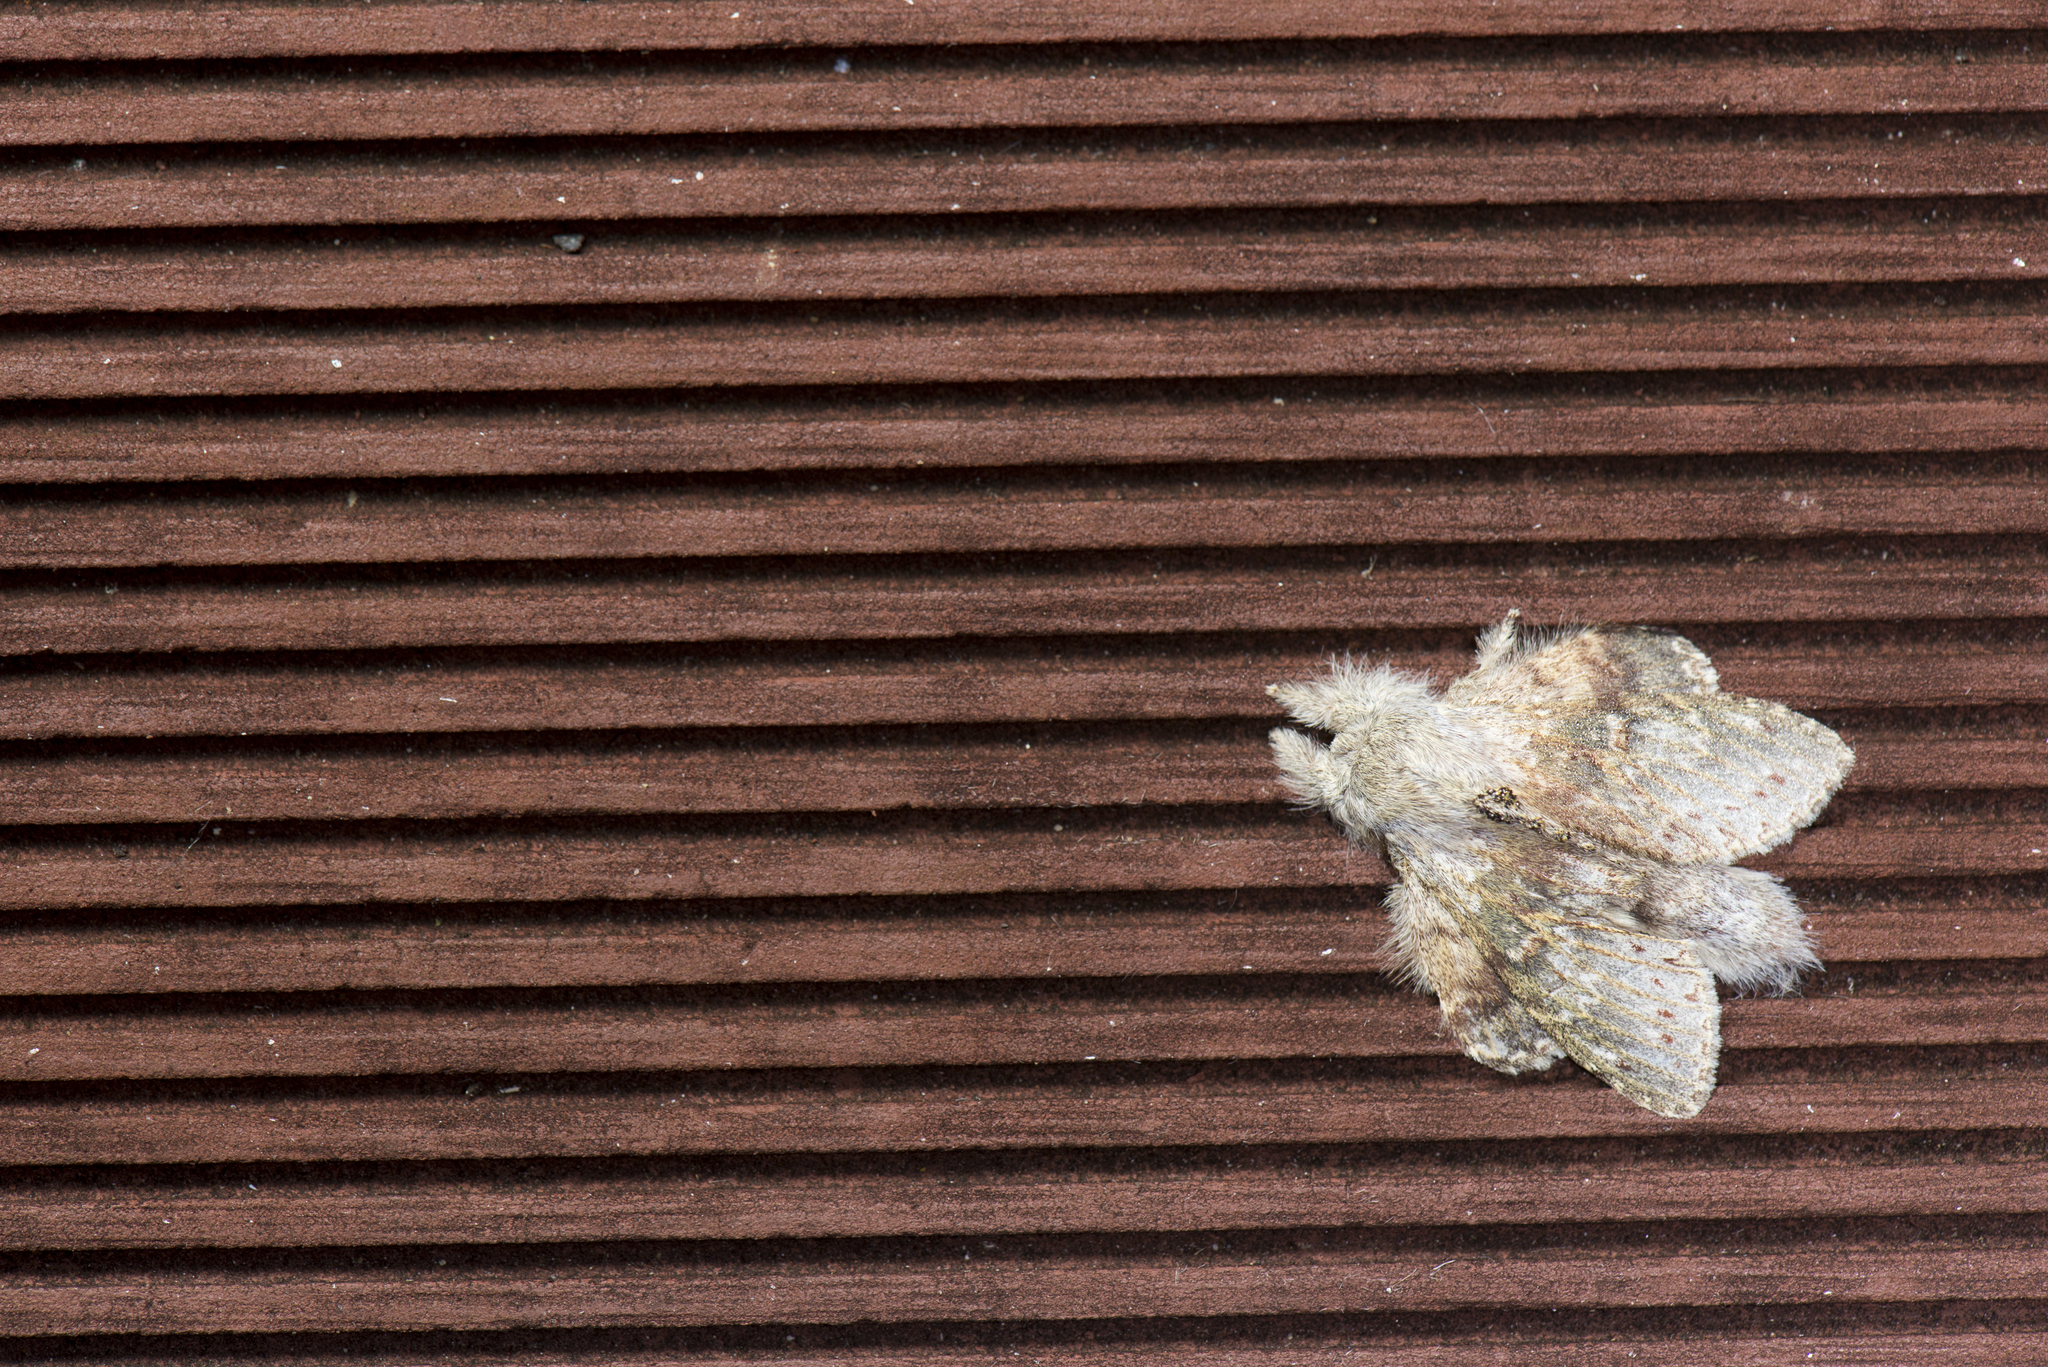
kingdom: Animalia
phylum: Arthropoda
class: Insecta
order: Lepidoptera
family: Notodontidae
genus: Stauropus
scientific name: Stauropus alternus
